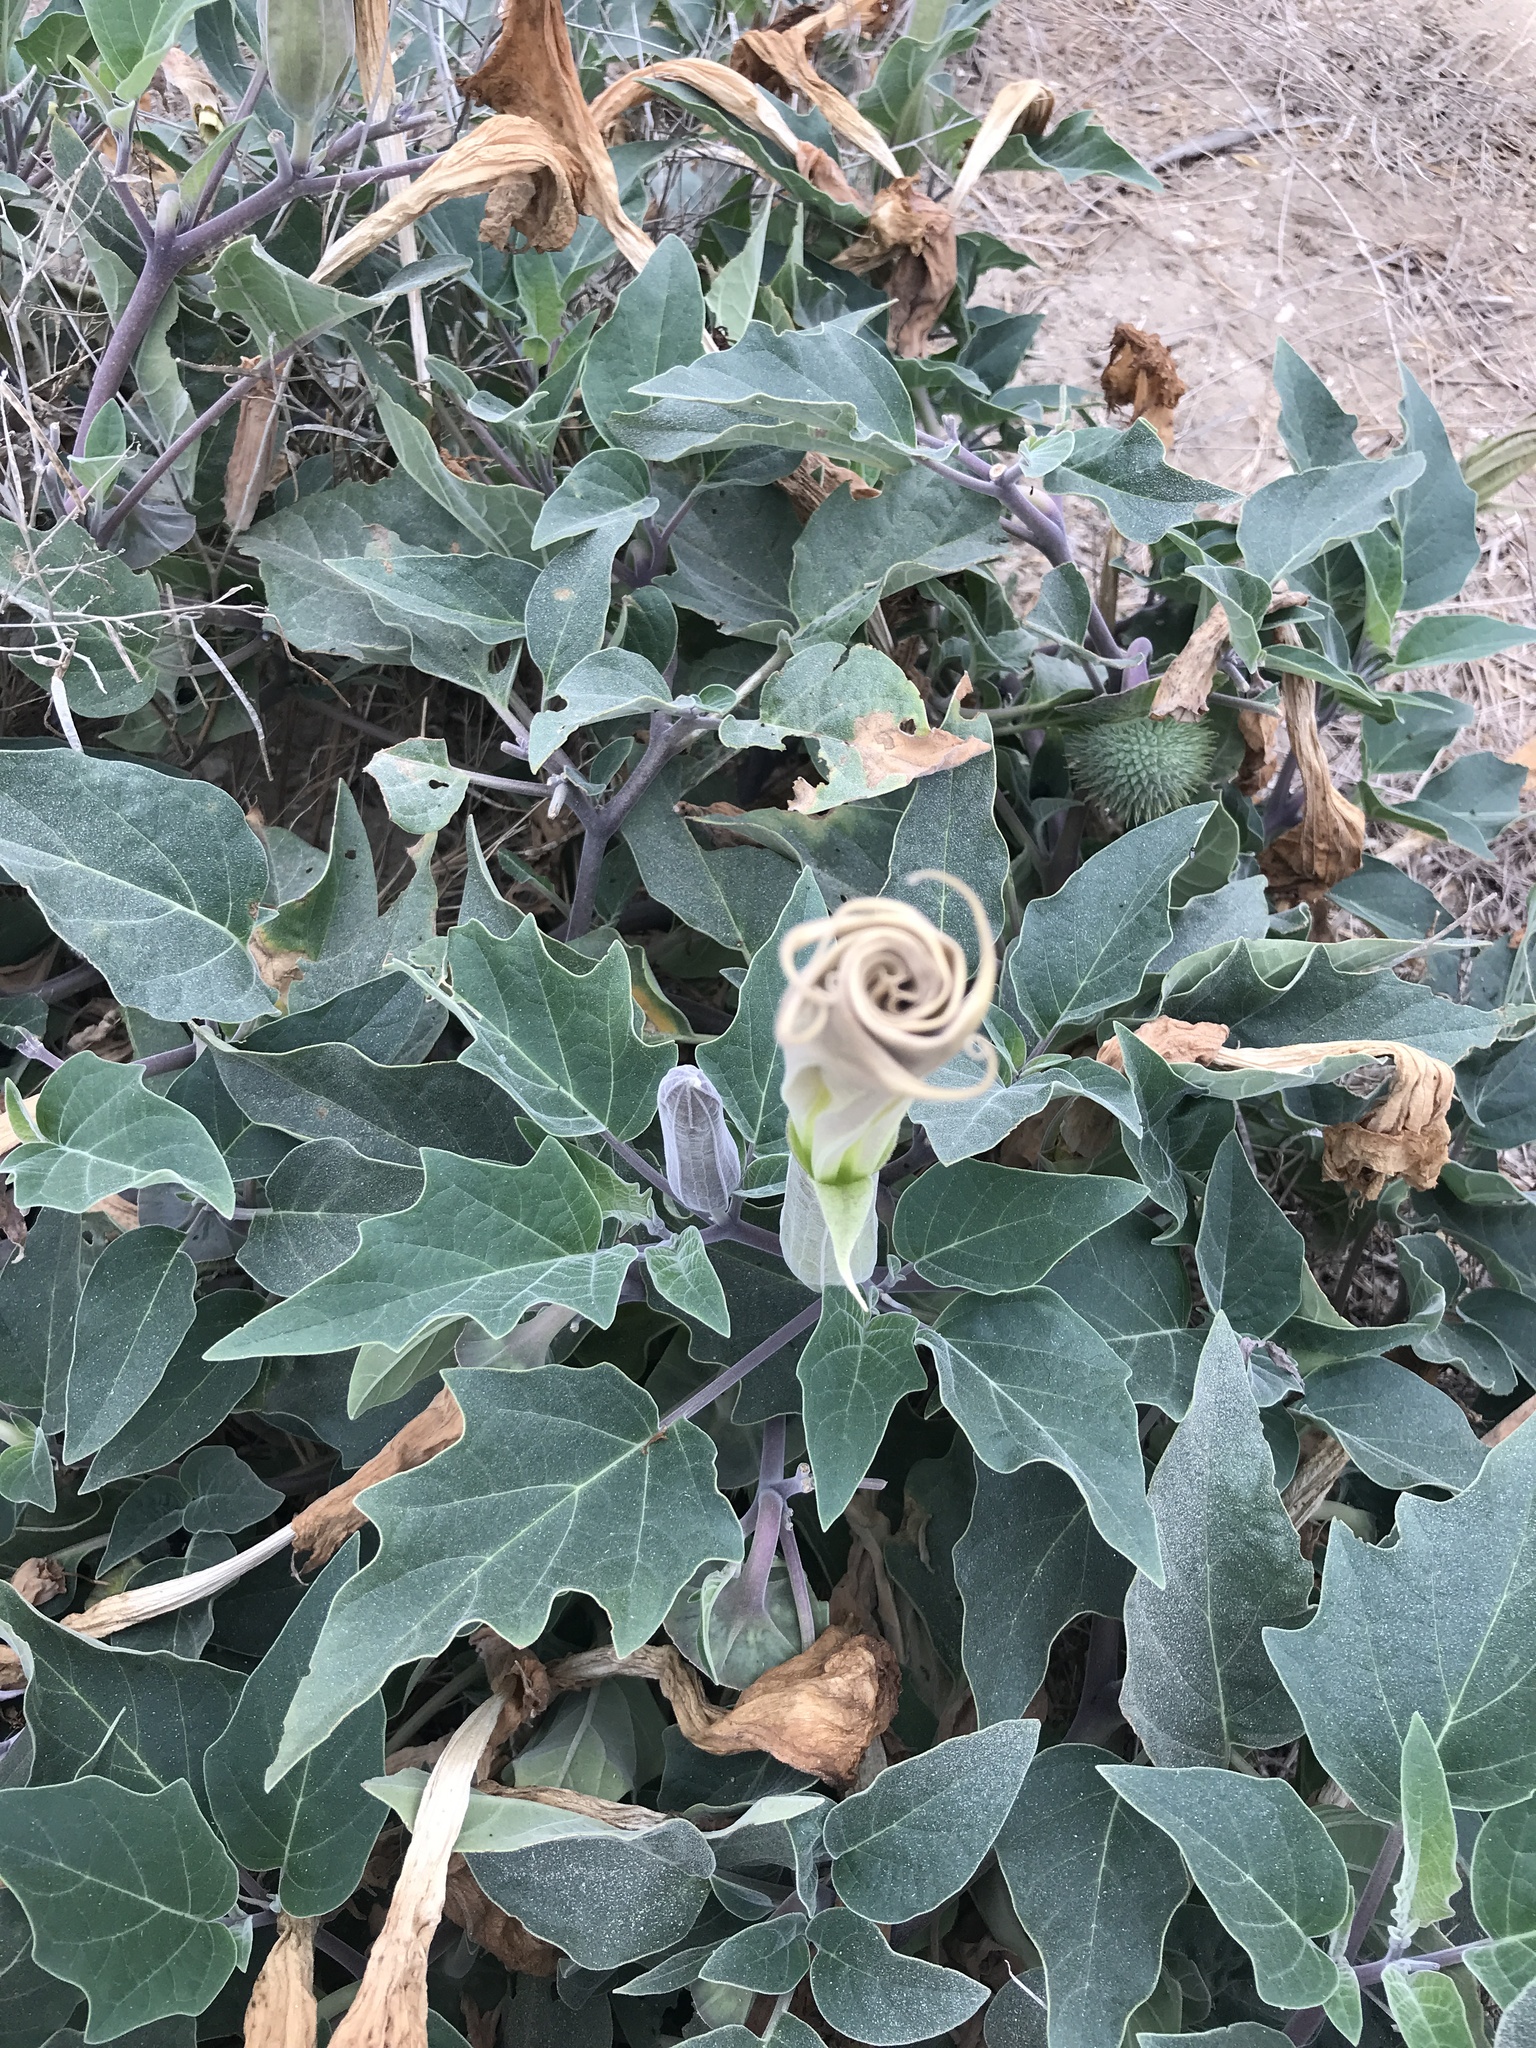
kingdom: Plantae
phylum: Tracheophyta
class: Magnoliopsida
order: Solanales
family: Solanaceae
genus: Datura
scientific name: Datura wrightii
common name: Sacred thorn-apple
